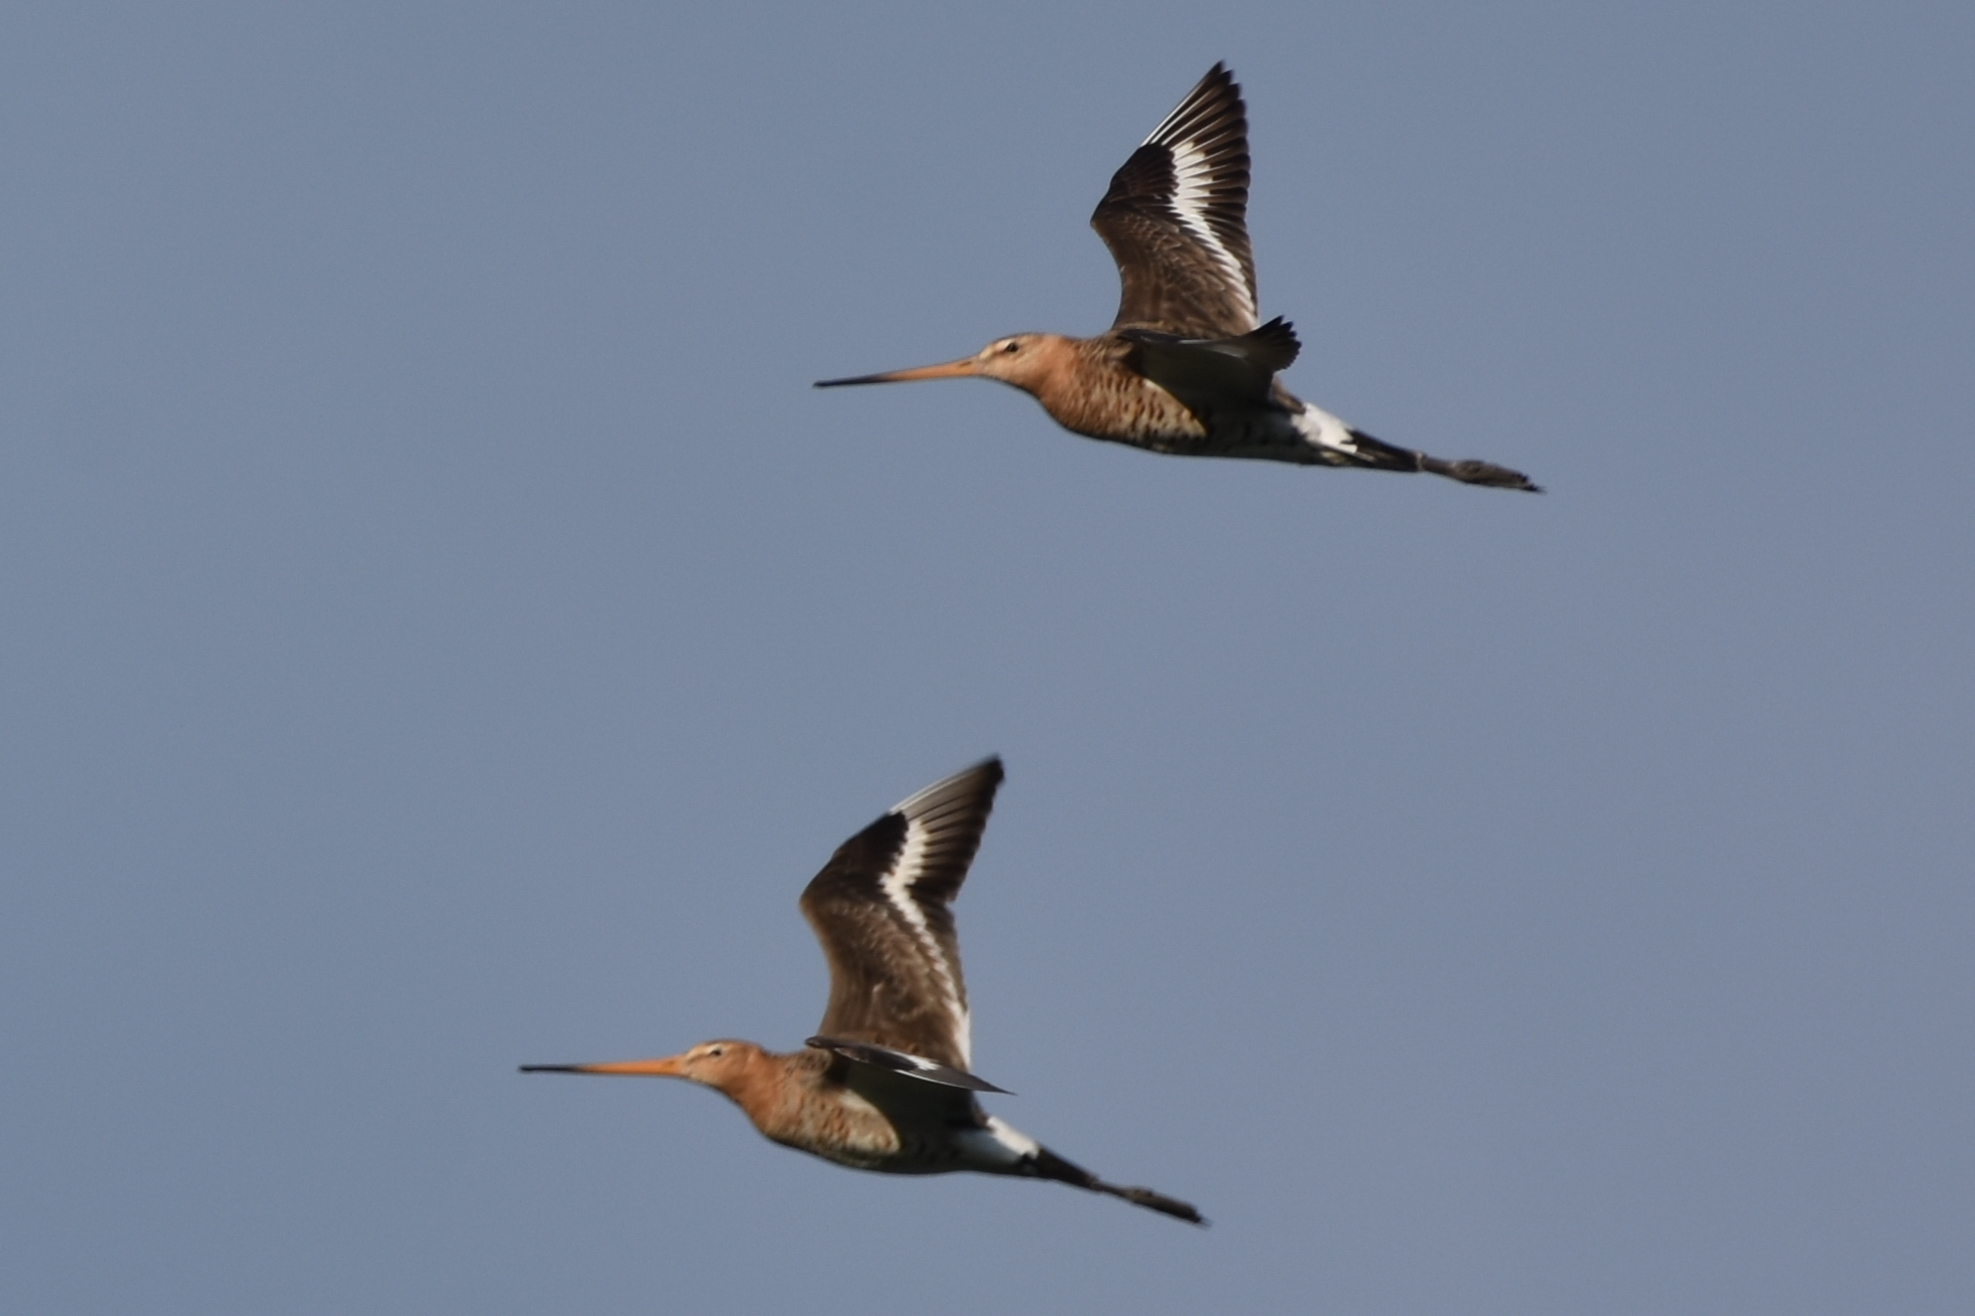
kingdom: Animalia
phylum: Chordata
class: Aves
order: Charadriiformes
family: Scolopacidae
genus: Limosa
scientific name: Limosa limosa
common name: Black-tailed godwit
